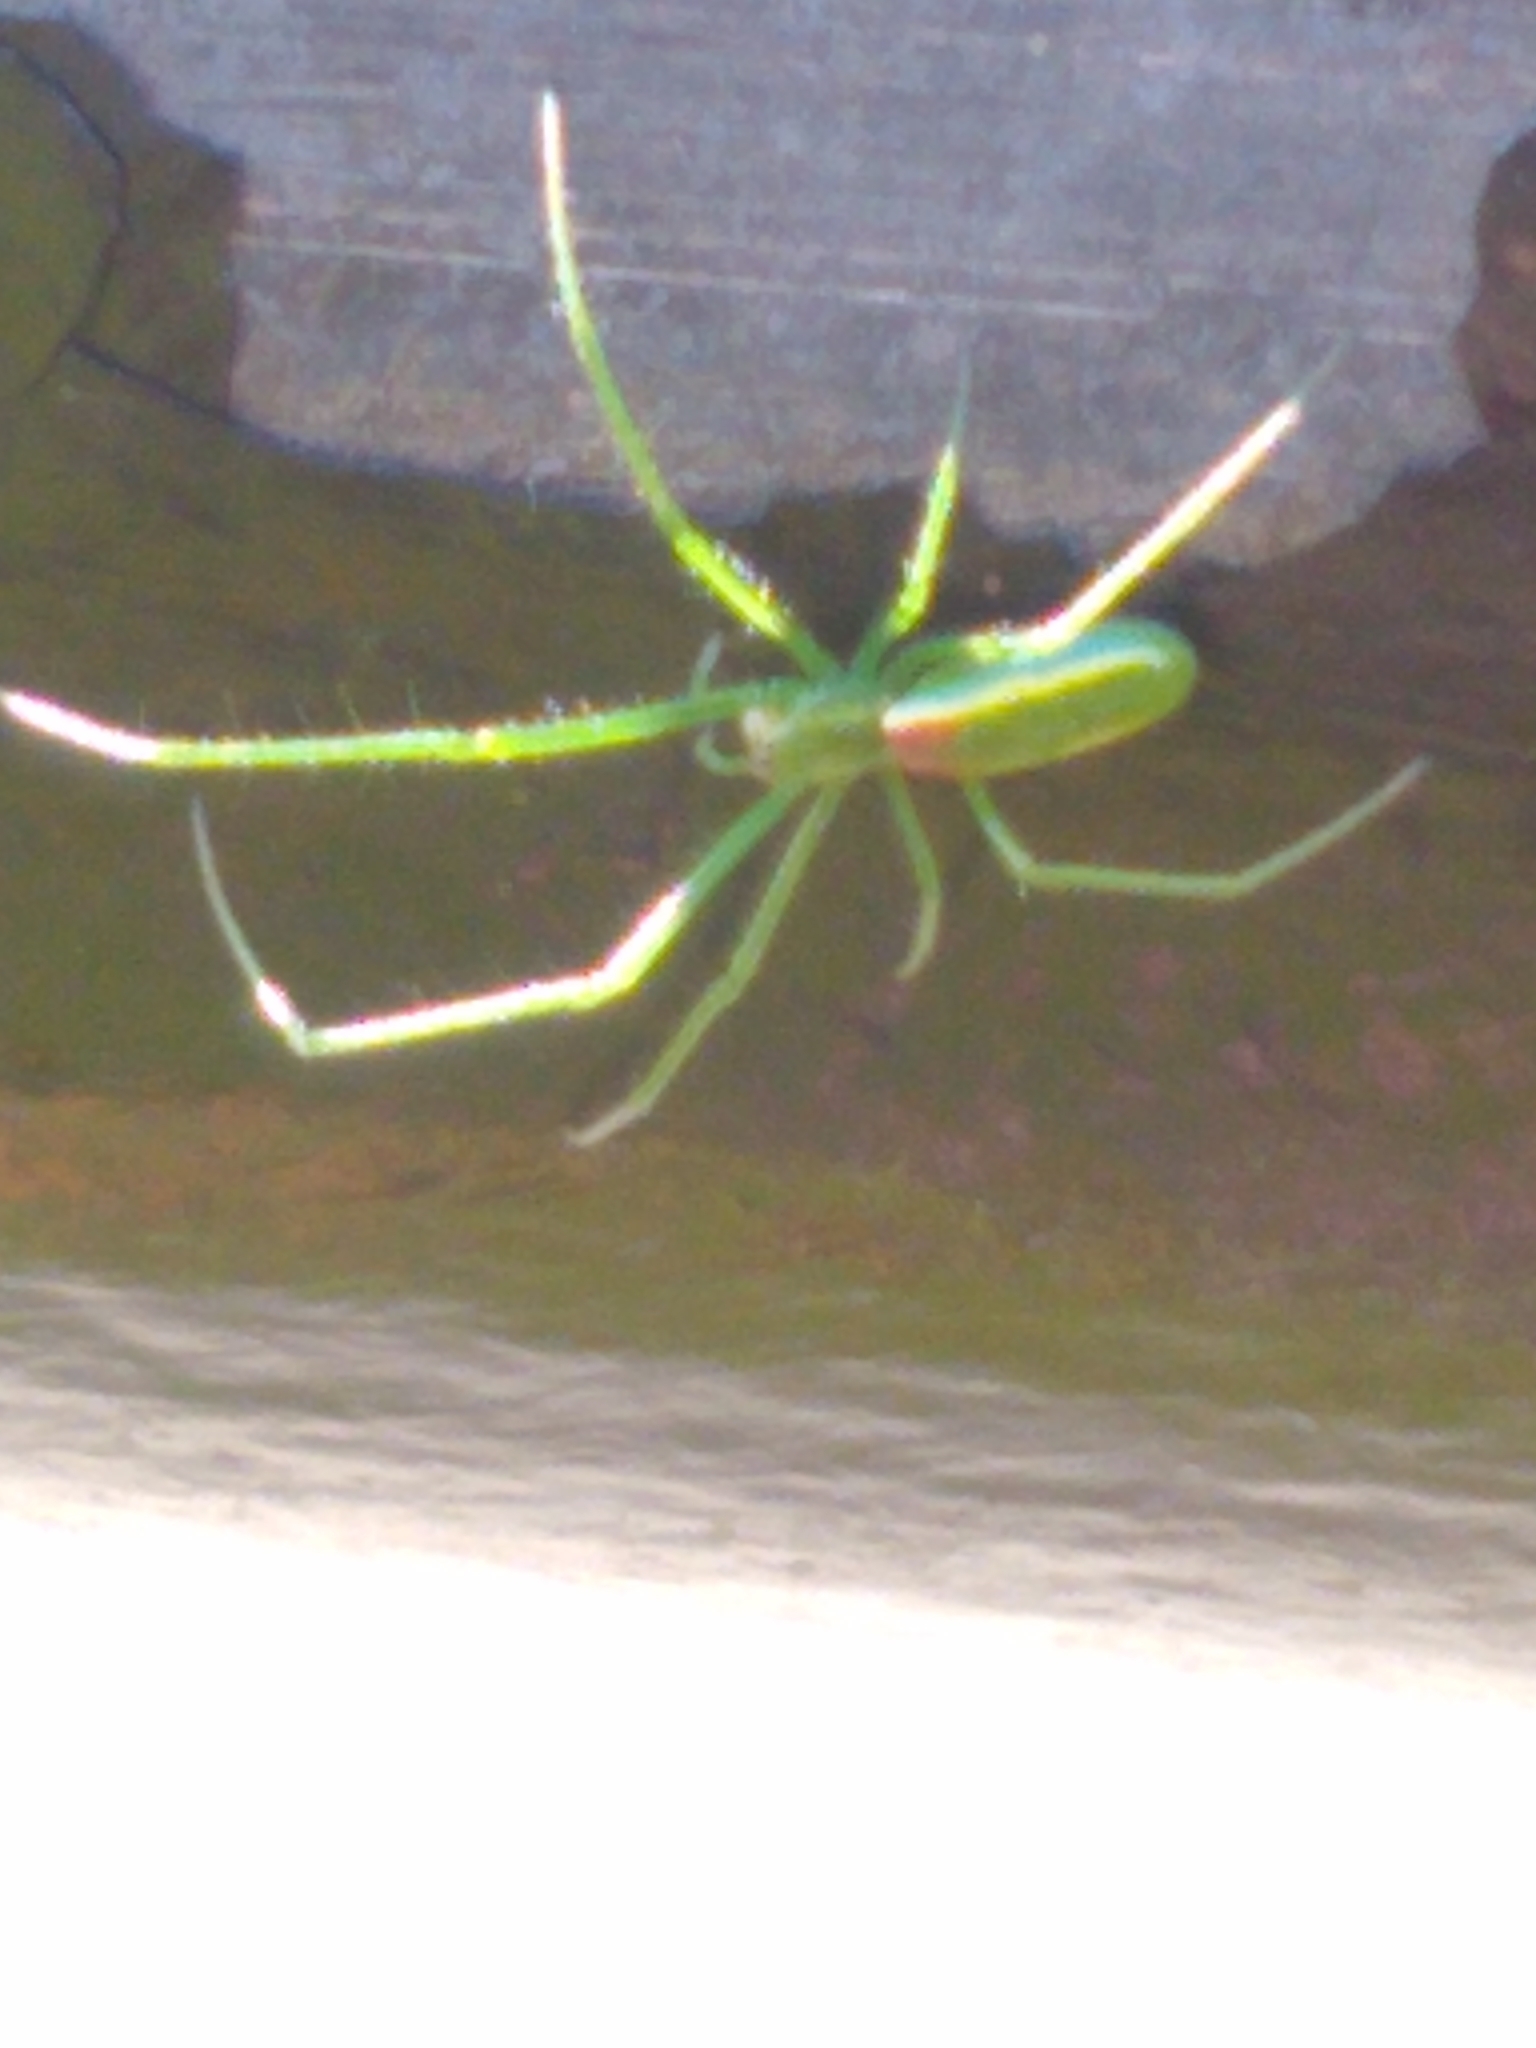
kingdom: Animalia
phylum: Arthropoda
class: Arachnida
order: Araneae
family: Tetragnathidae
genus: Tetragnatha
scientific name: Tetragnatha viridis
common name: Green long-jawed spider
